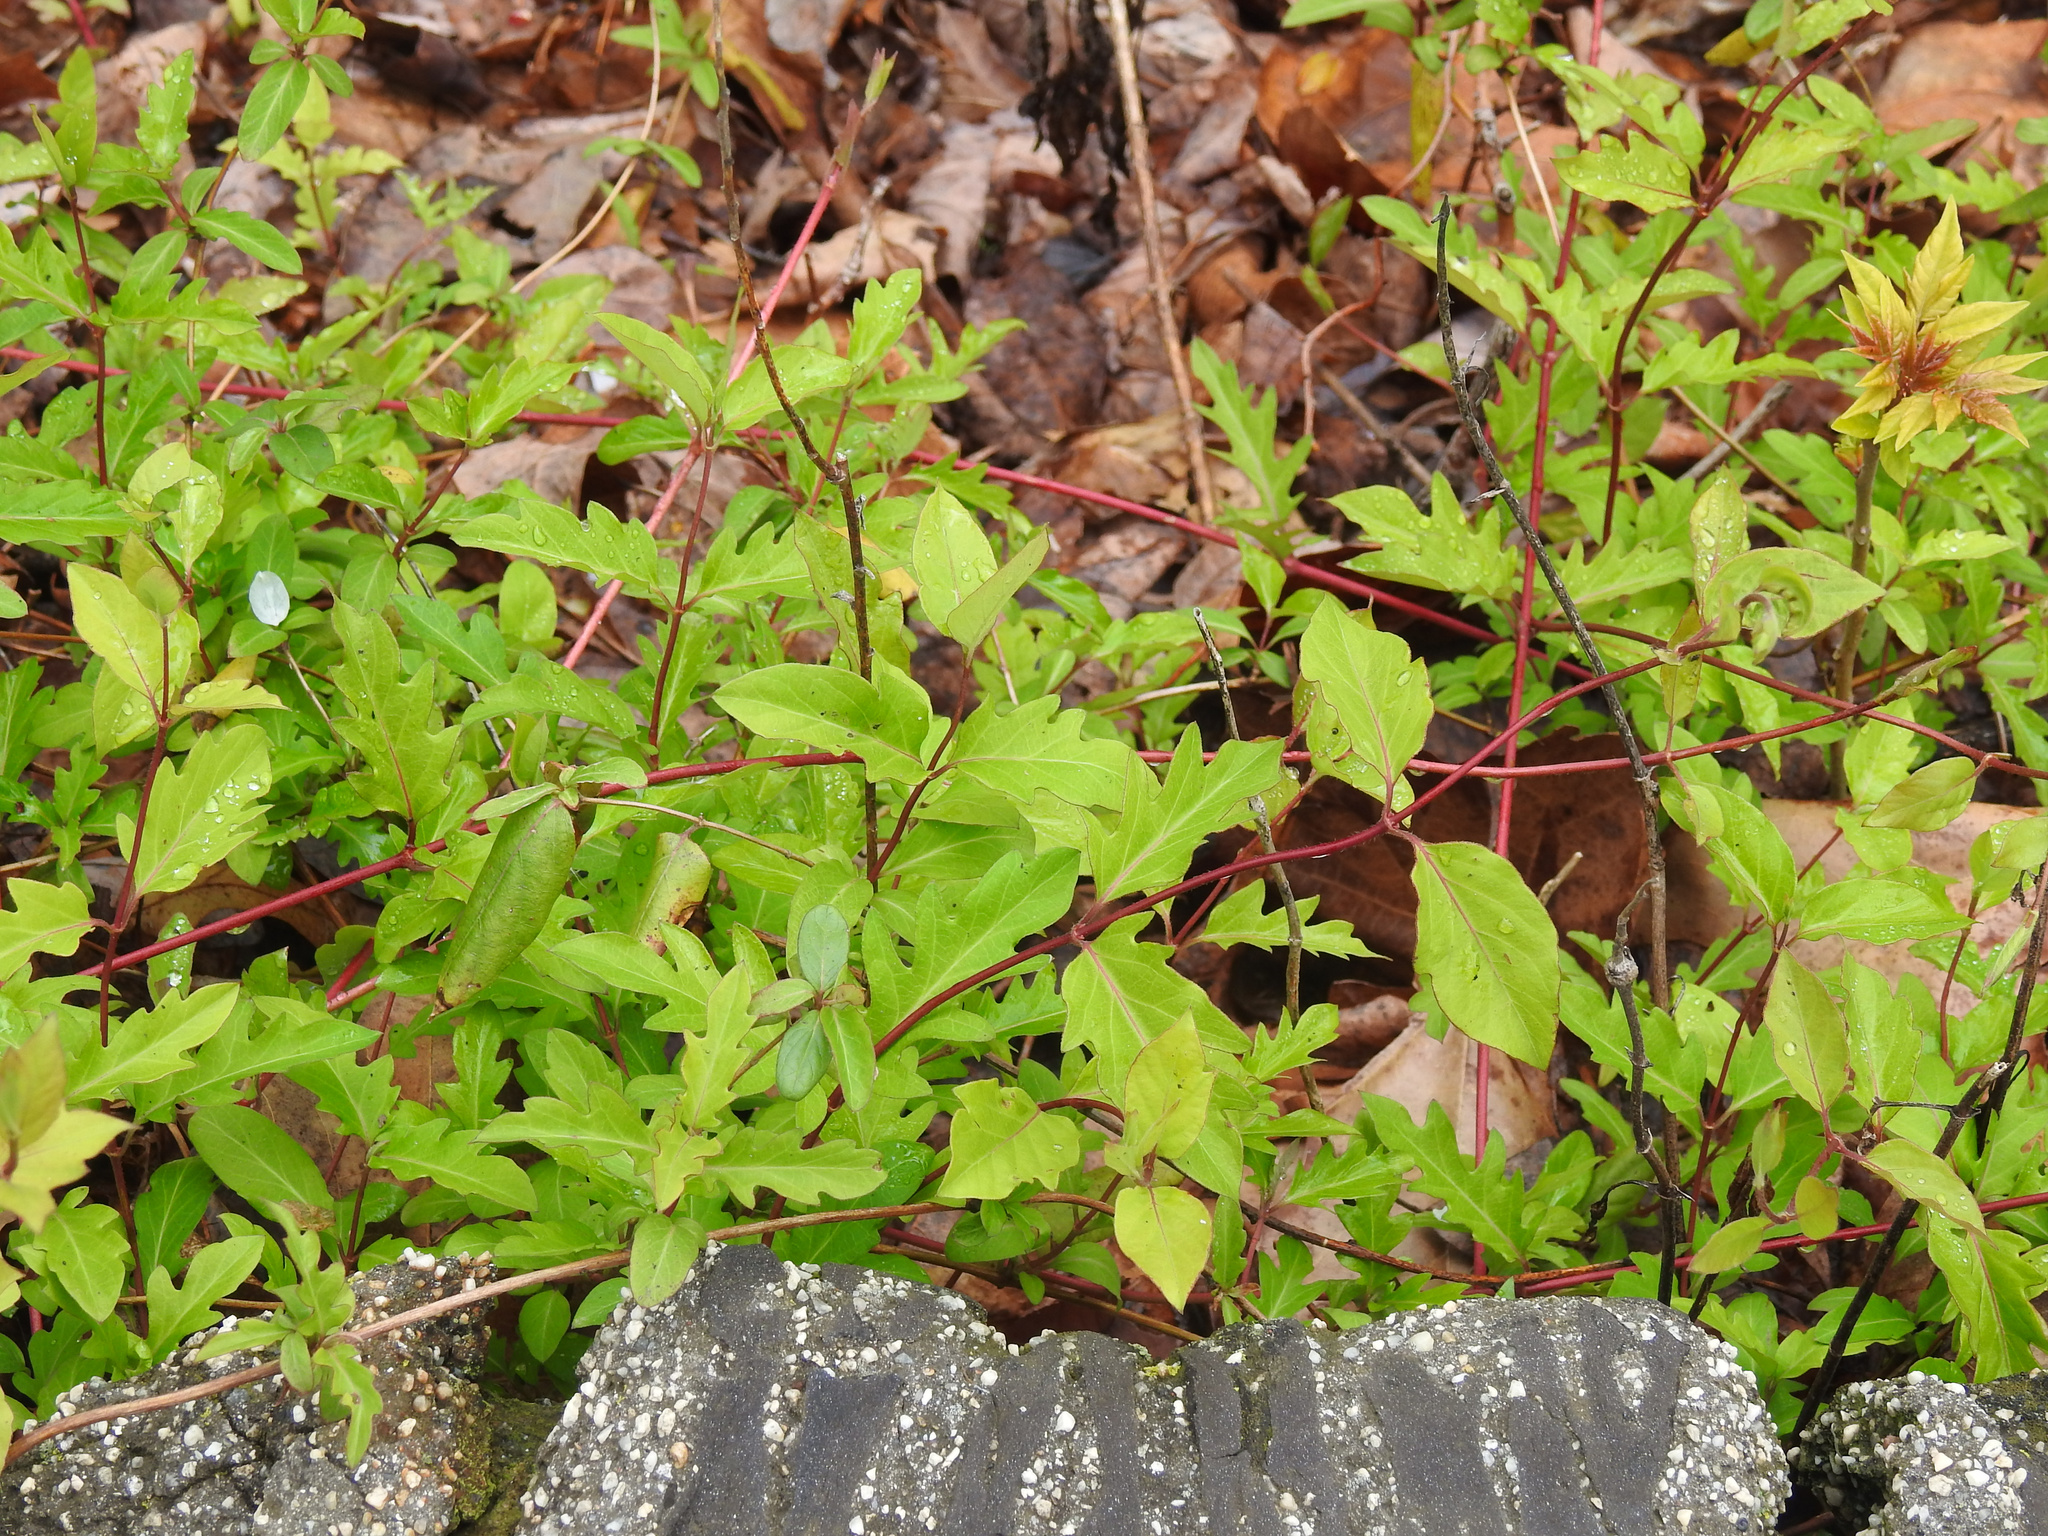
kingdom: Plantae
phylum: Tracheophyta
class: Magnoliopsida
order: Dipsacales
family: Caprifoliaceae
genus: Lonicera
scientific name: Lonicera japonica
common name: Japanese honeysuckle
